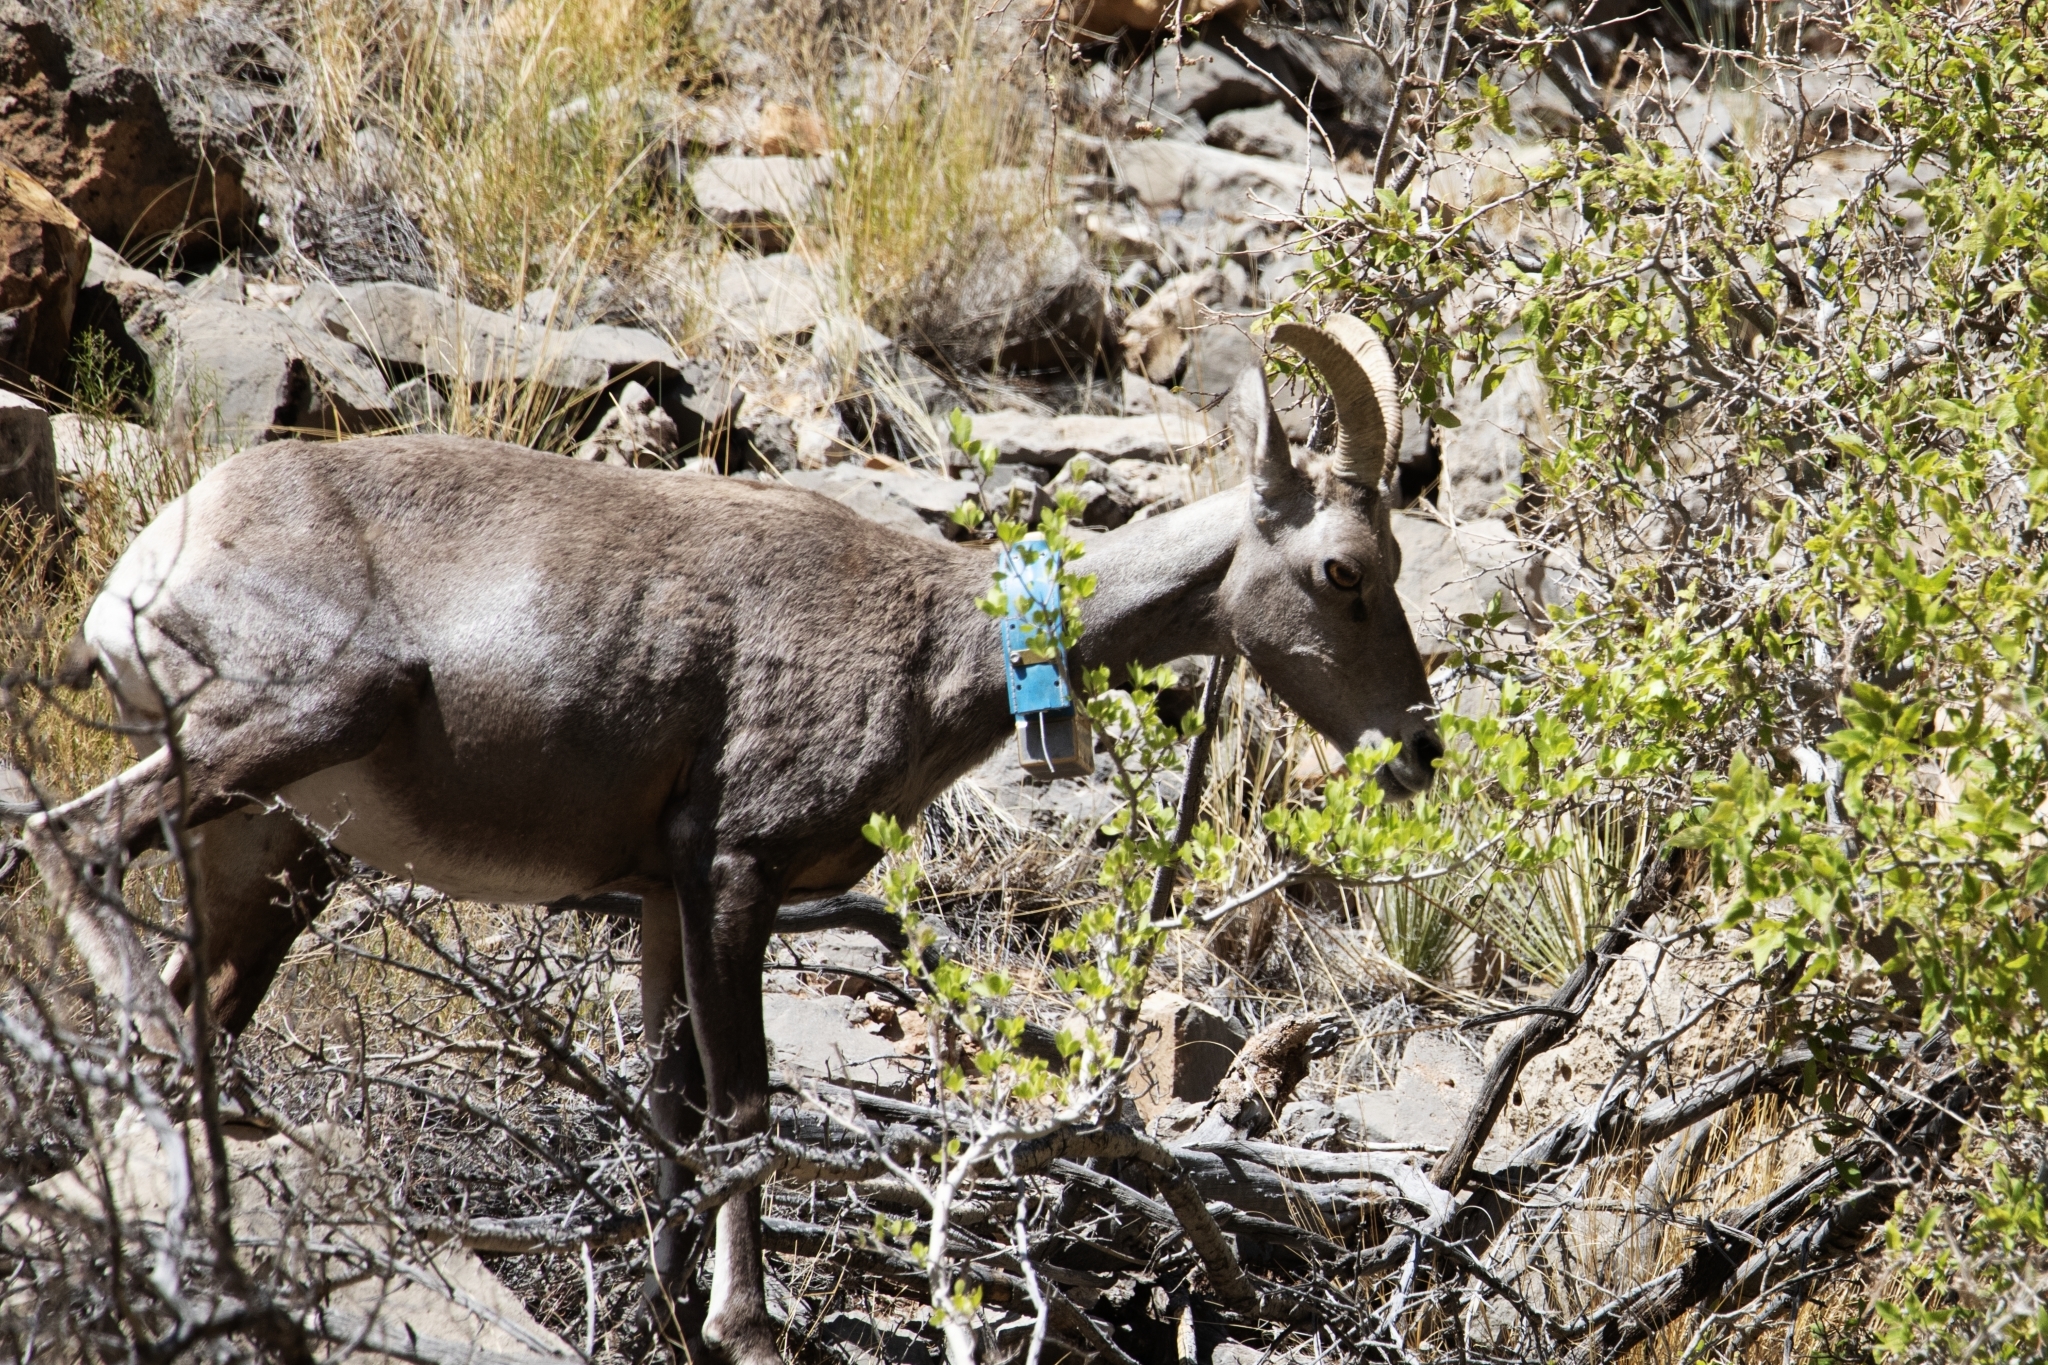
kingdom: Animalia
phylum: Chordata
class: Mammalia
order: Artiodactyla
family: Bovidae
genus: Ovis
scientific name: Ovis canadensis
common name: Bighorn sheep
